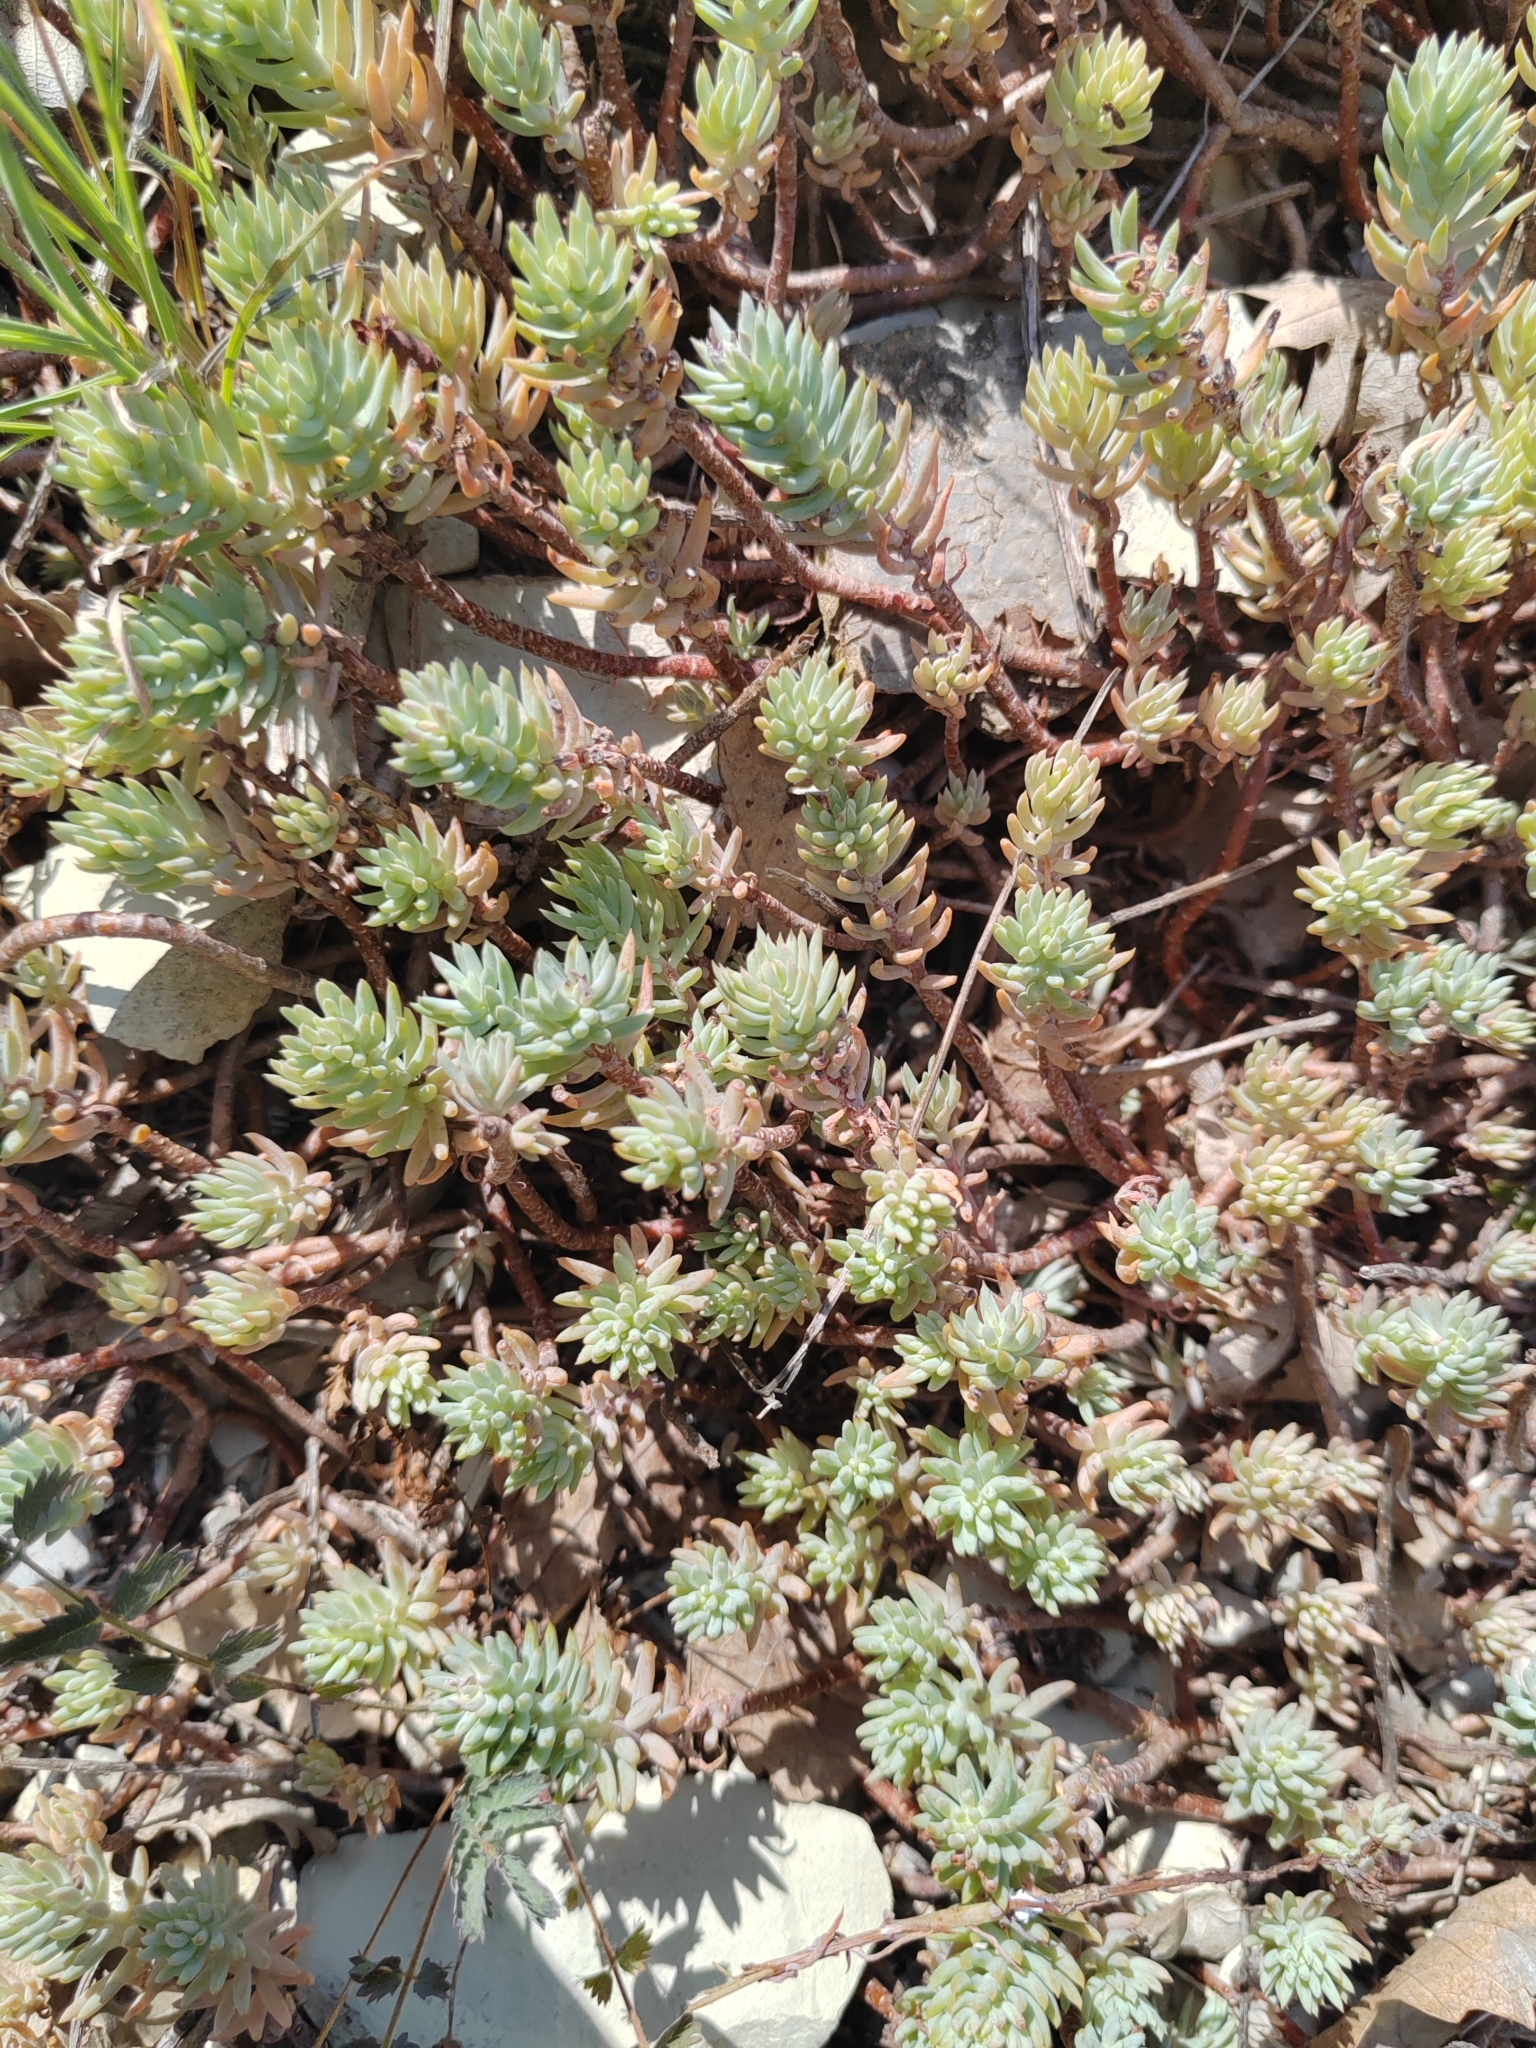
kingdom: Plantae
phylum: Tracheophyta
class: Magnoliopsida
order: Saxifragales
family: Crassulaceae
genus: Petrosedum
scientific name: Petrosedum rupestre
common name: Jenny's stonecrop
